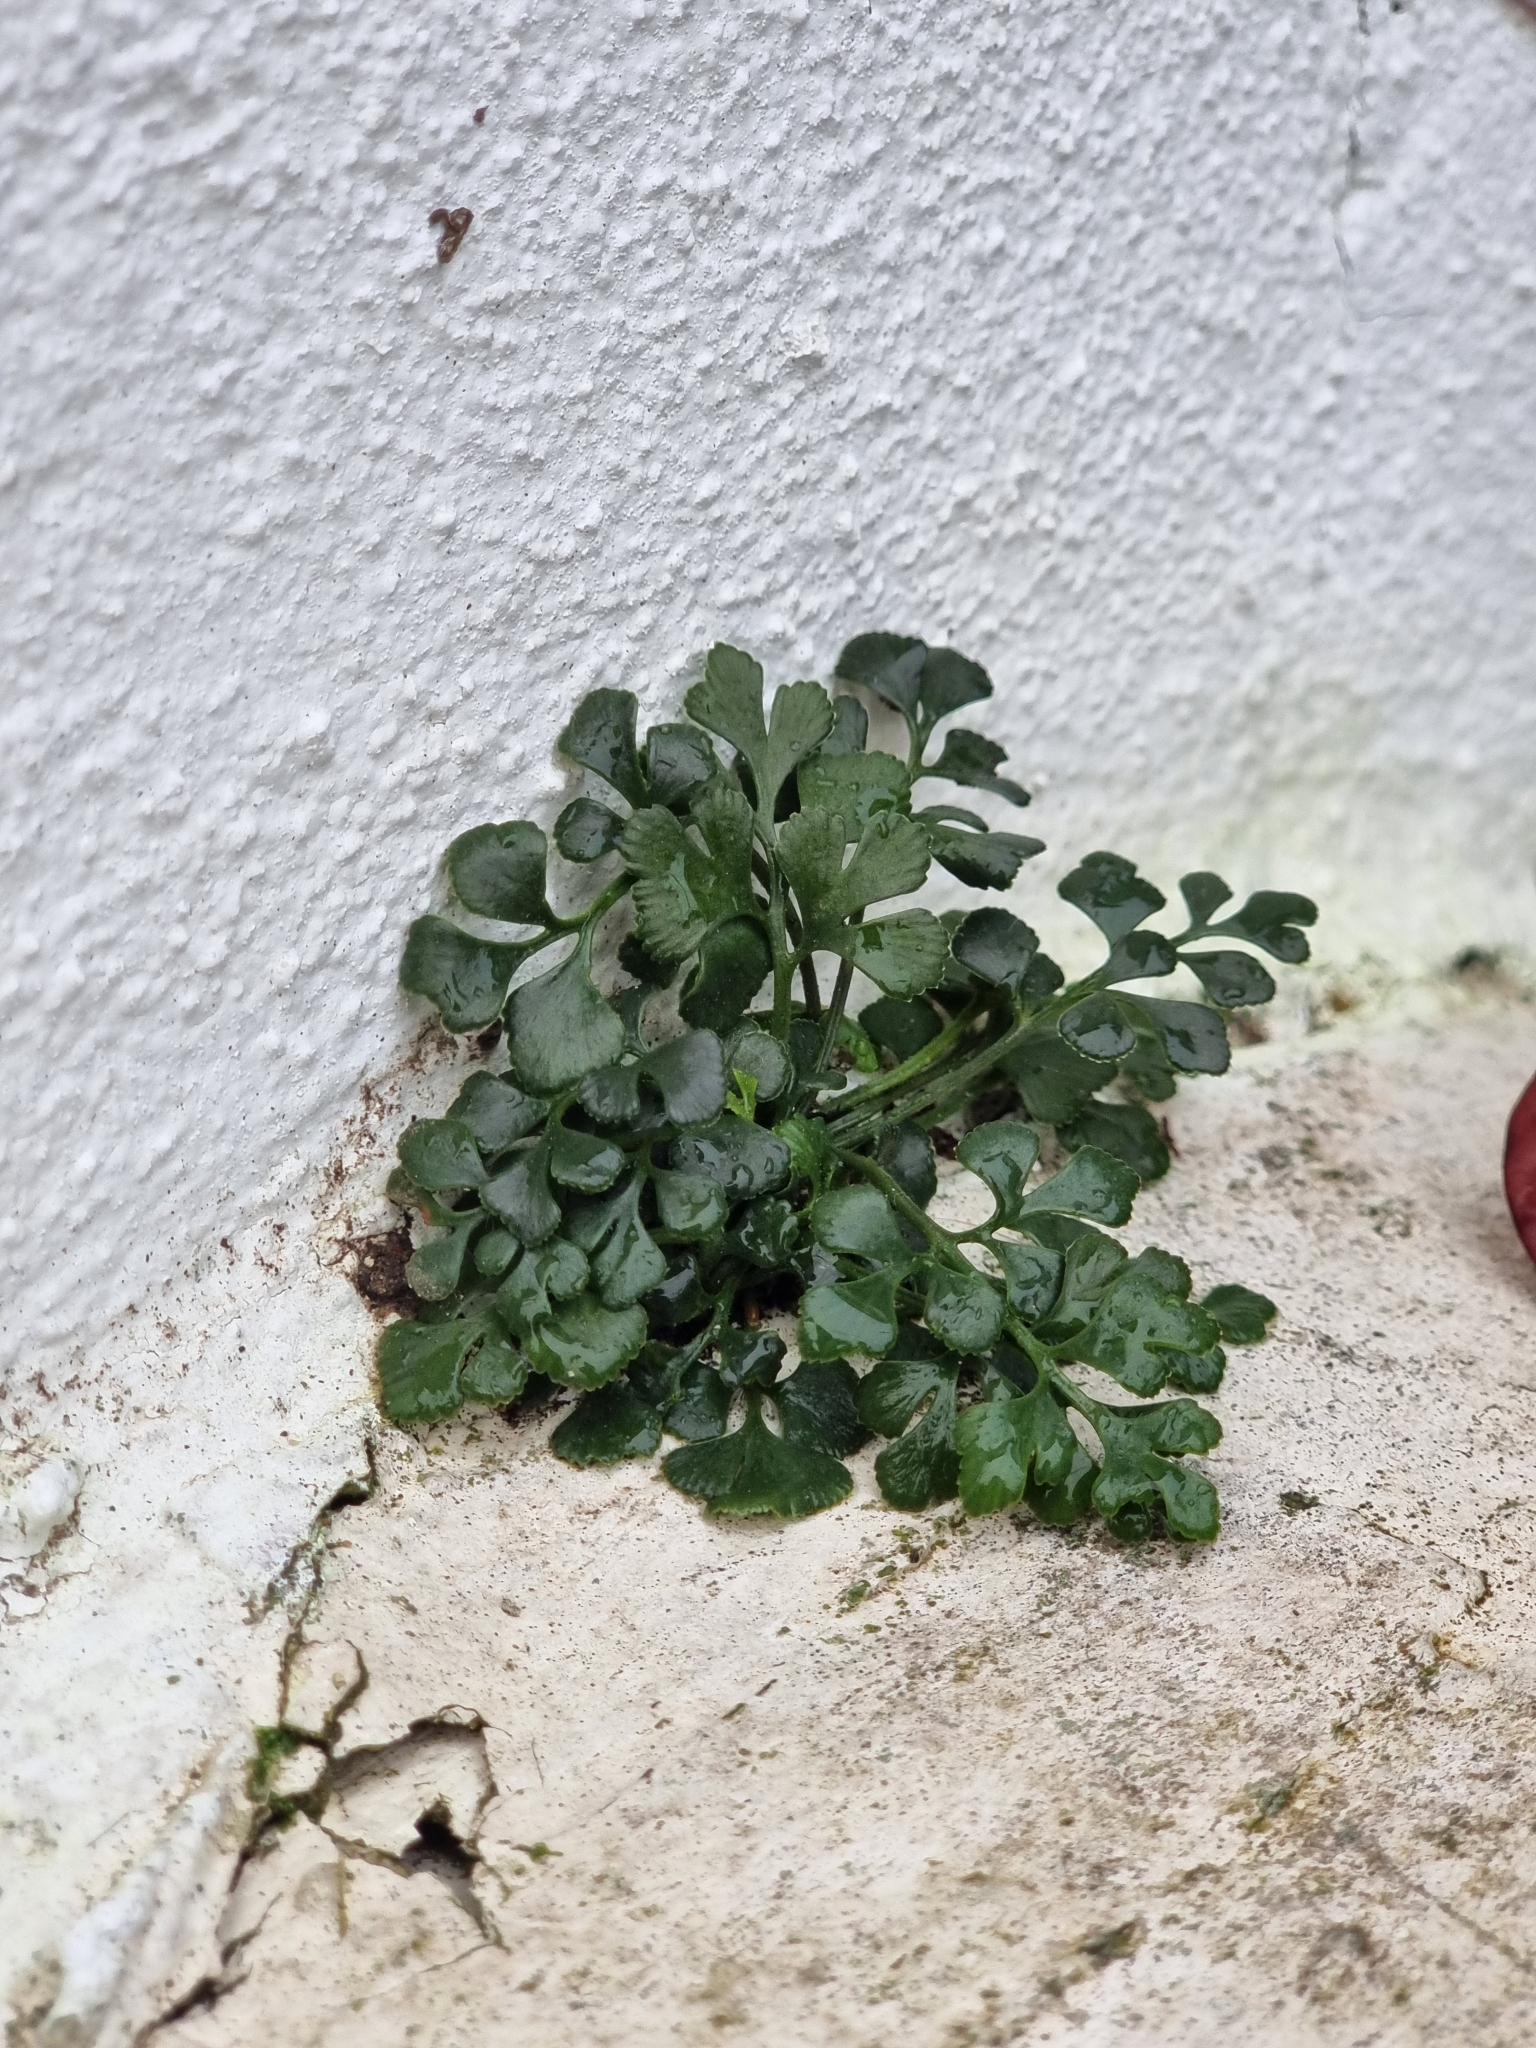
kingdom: Plantae
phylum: Tracheophyta
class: Polypodiopsida
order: Polypodiales
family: Aspleniaceae
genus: Asplenium
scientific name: Asplenium ruta-muraria
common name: Wall-rue
